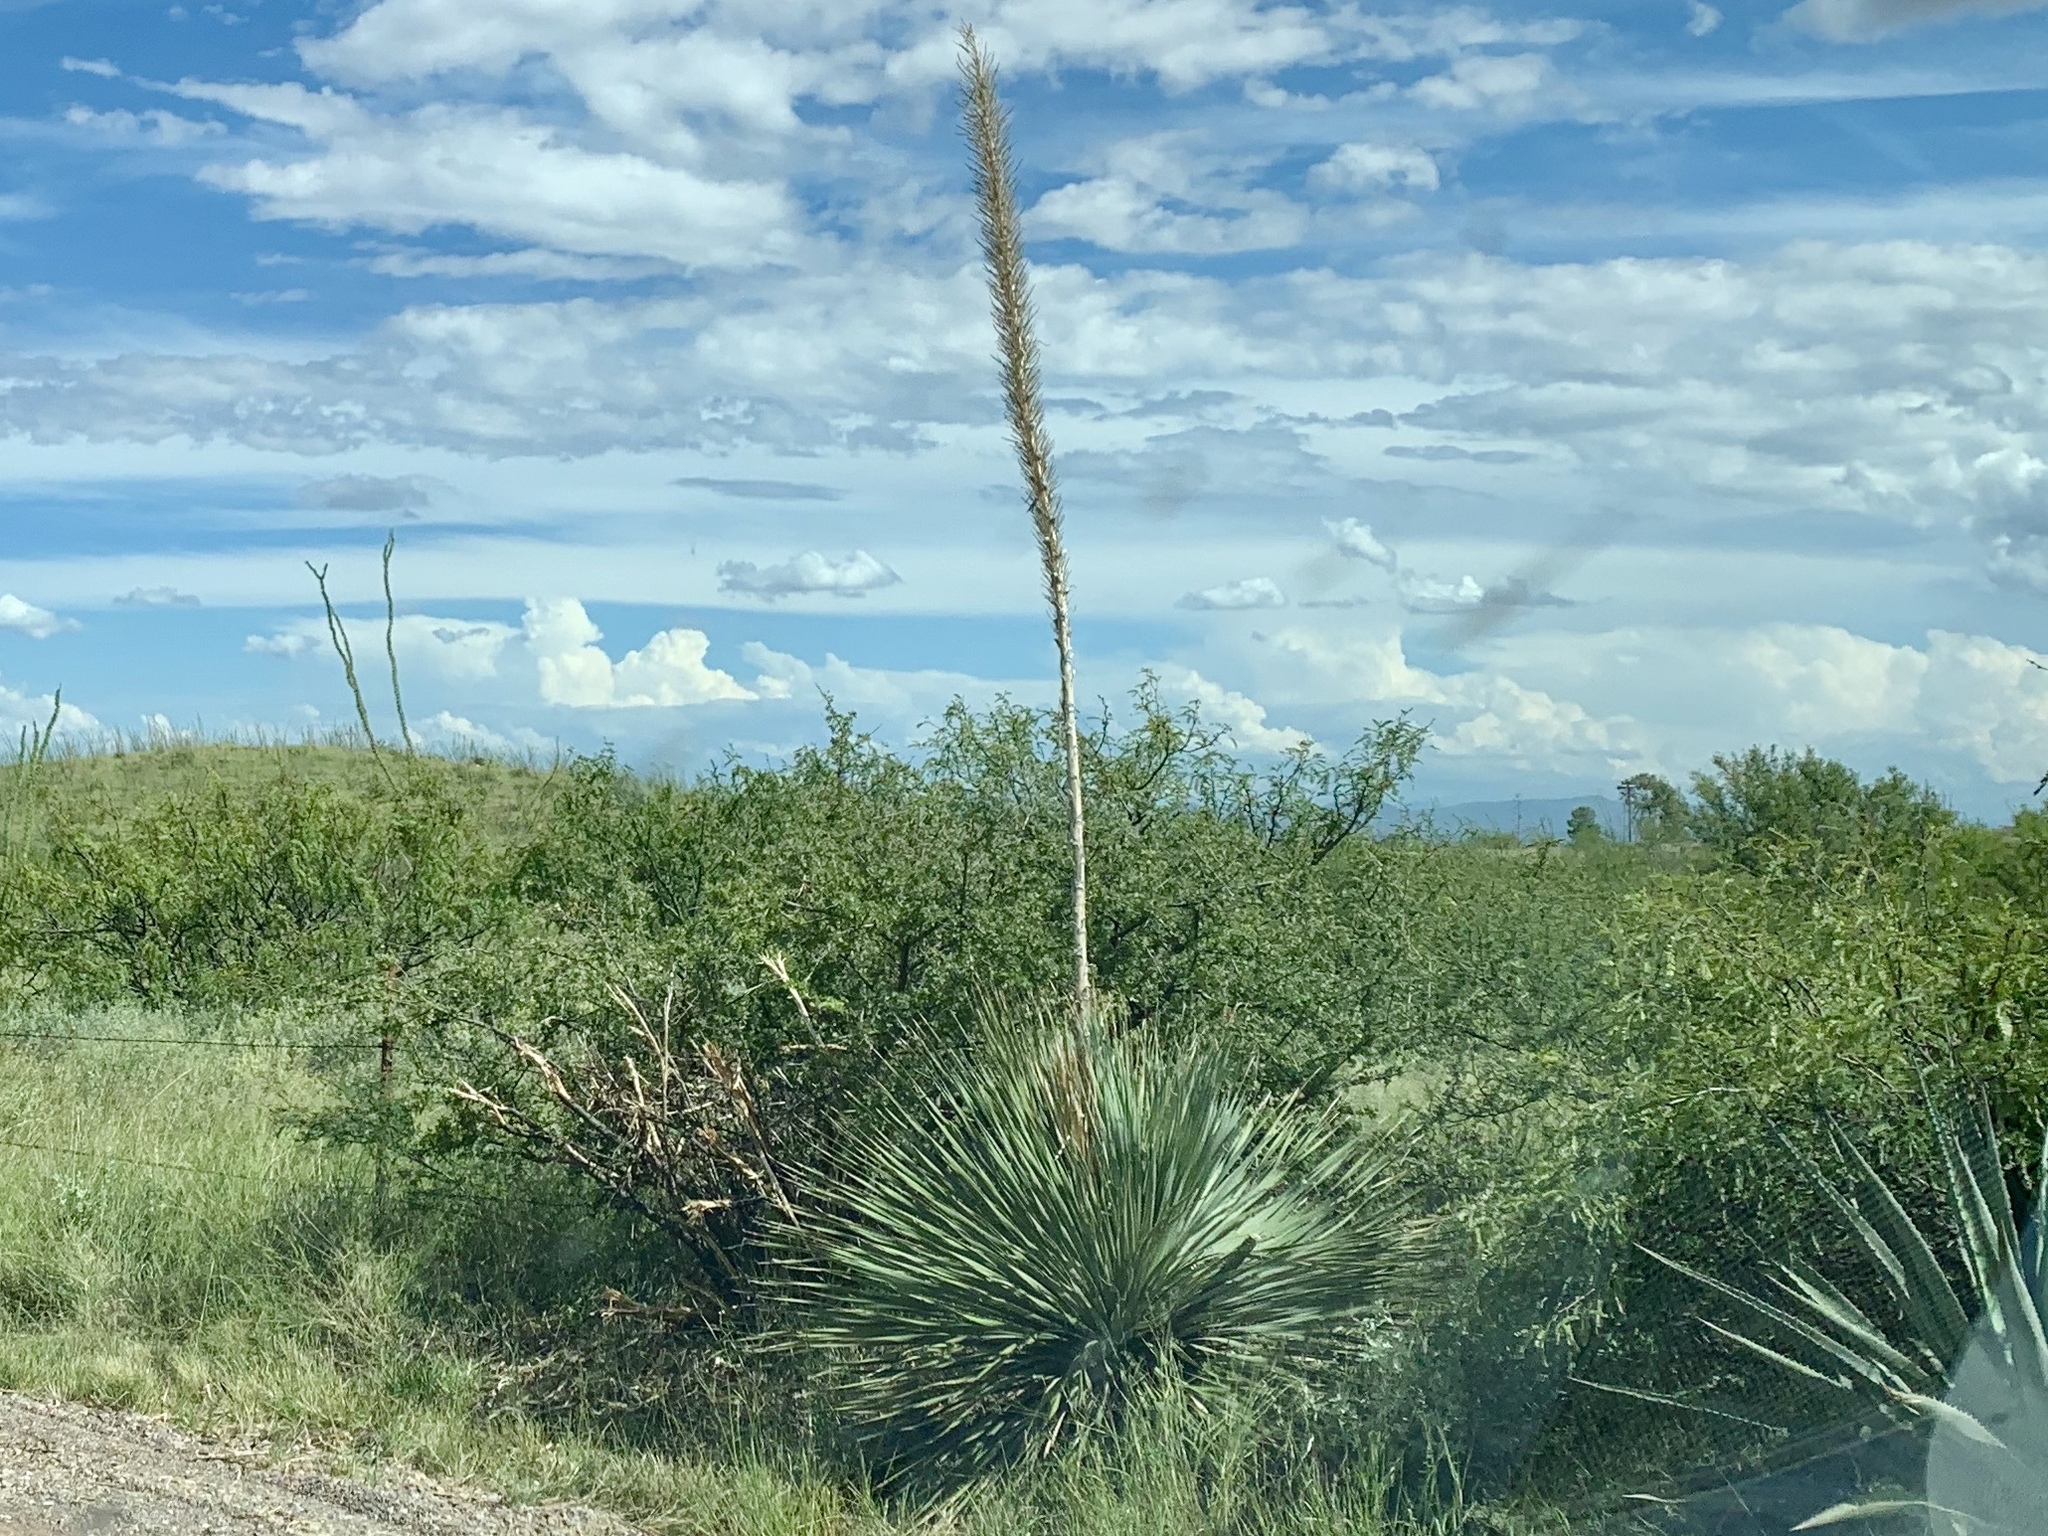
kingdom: Plantae
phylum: Tracheophyta
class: Liliopsida
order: Asparagales
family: Asparagaceae
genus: Dasylirion
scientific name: Dasylirion wheeleri
